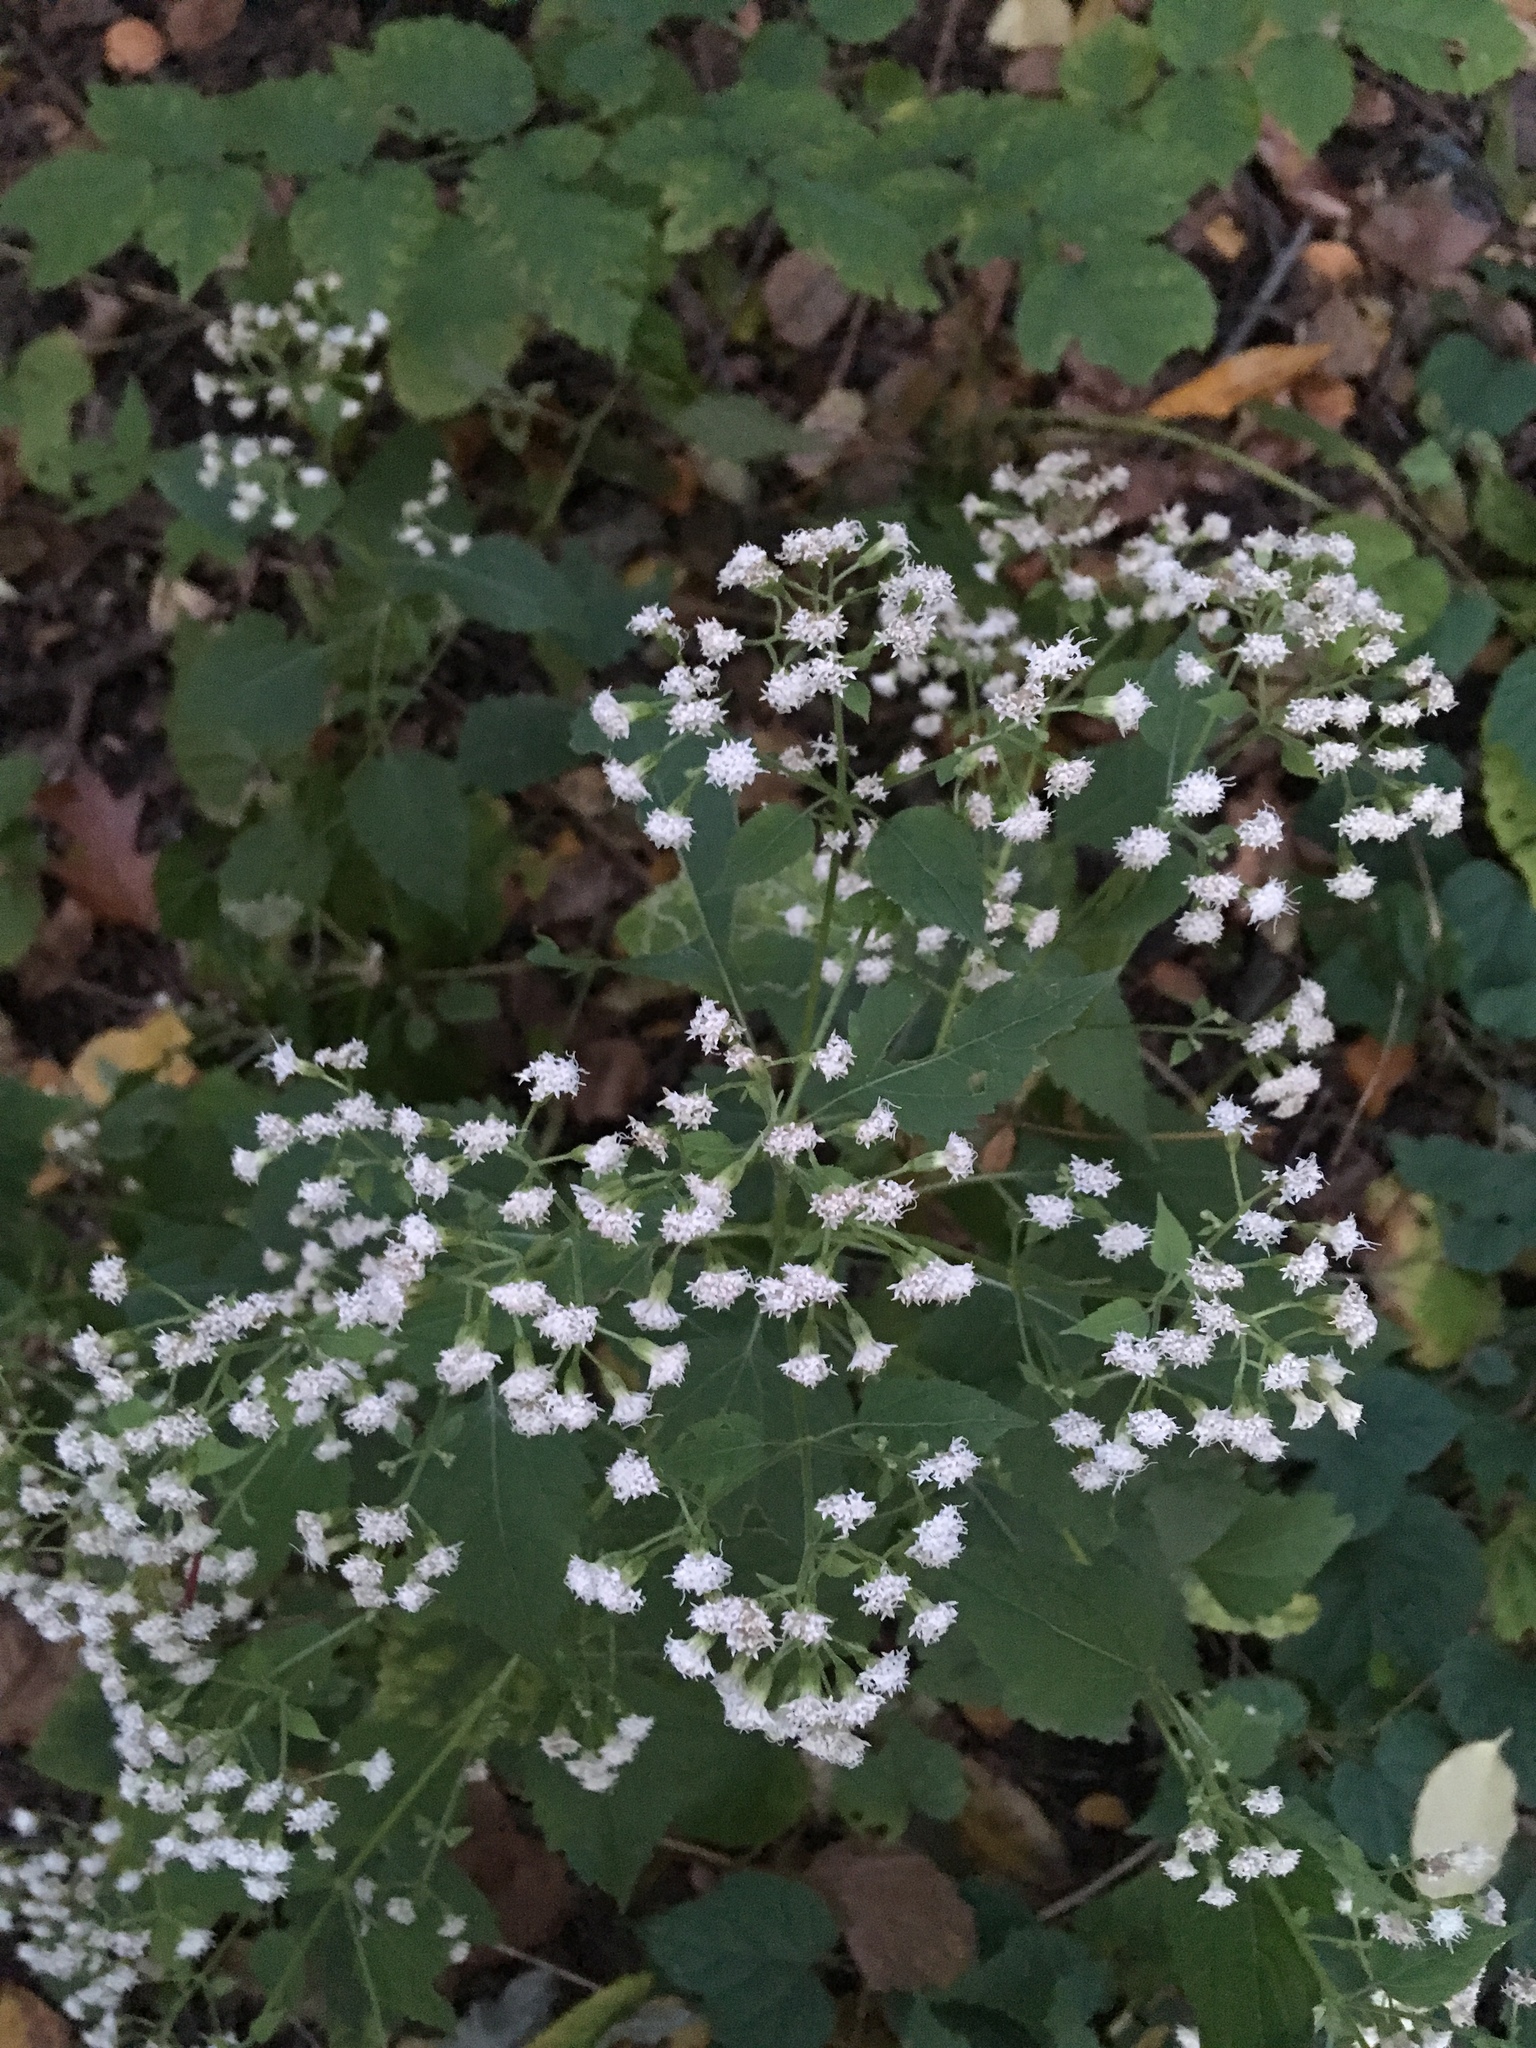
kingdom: Plantae
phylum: Tracheophyta
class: Magnoliopsida
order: Asterales
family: Asteraceae
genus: Ageratina
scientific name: Ageratina altissima
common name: White snakeroot
